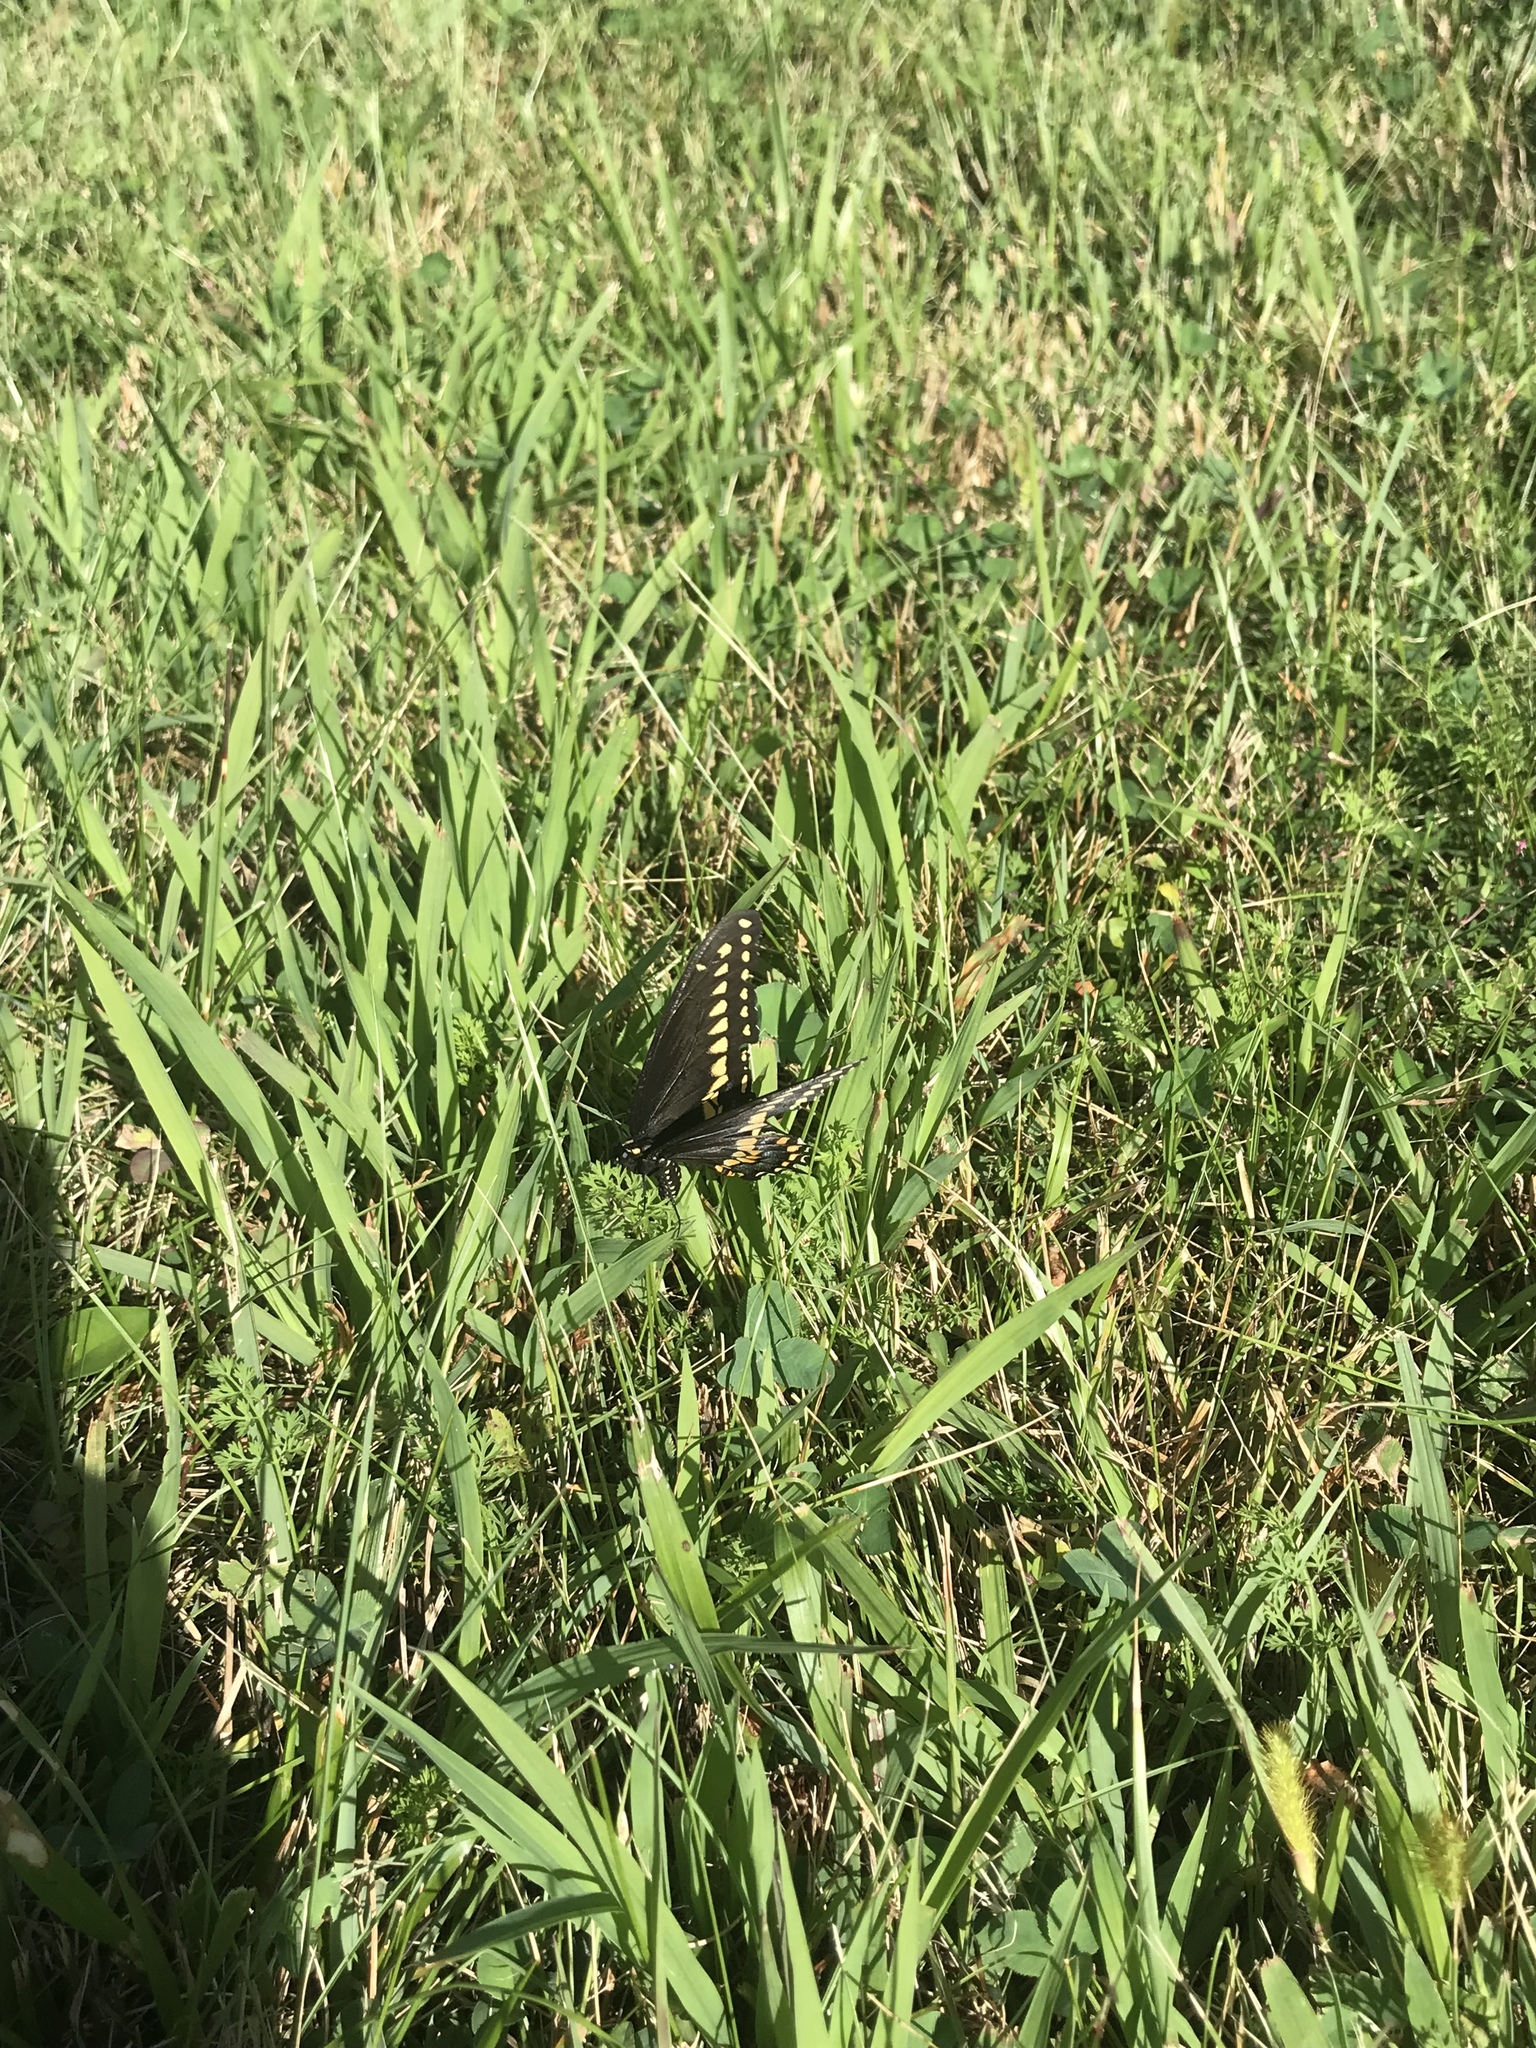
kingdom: Animalia
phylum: Arthropoda
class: Insecta
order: Lepidoptera
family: Papilionidae
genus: Papilio
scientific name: Papilio polyxenes
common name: Black swallowtail
